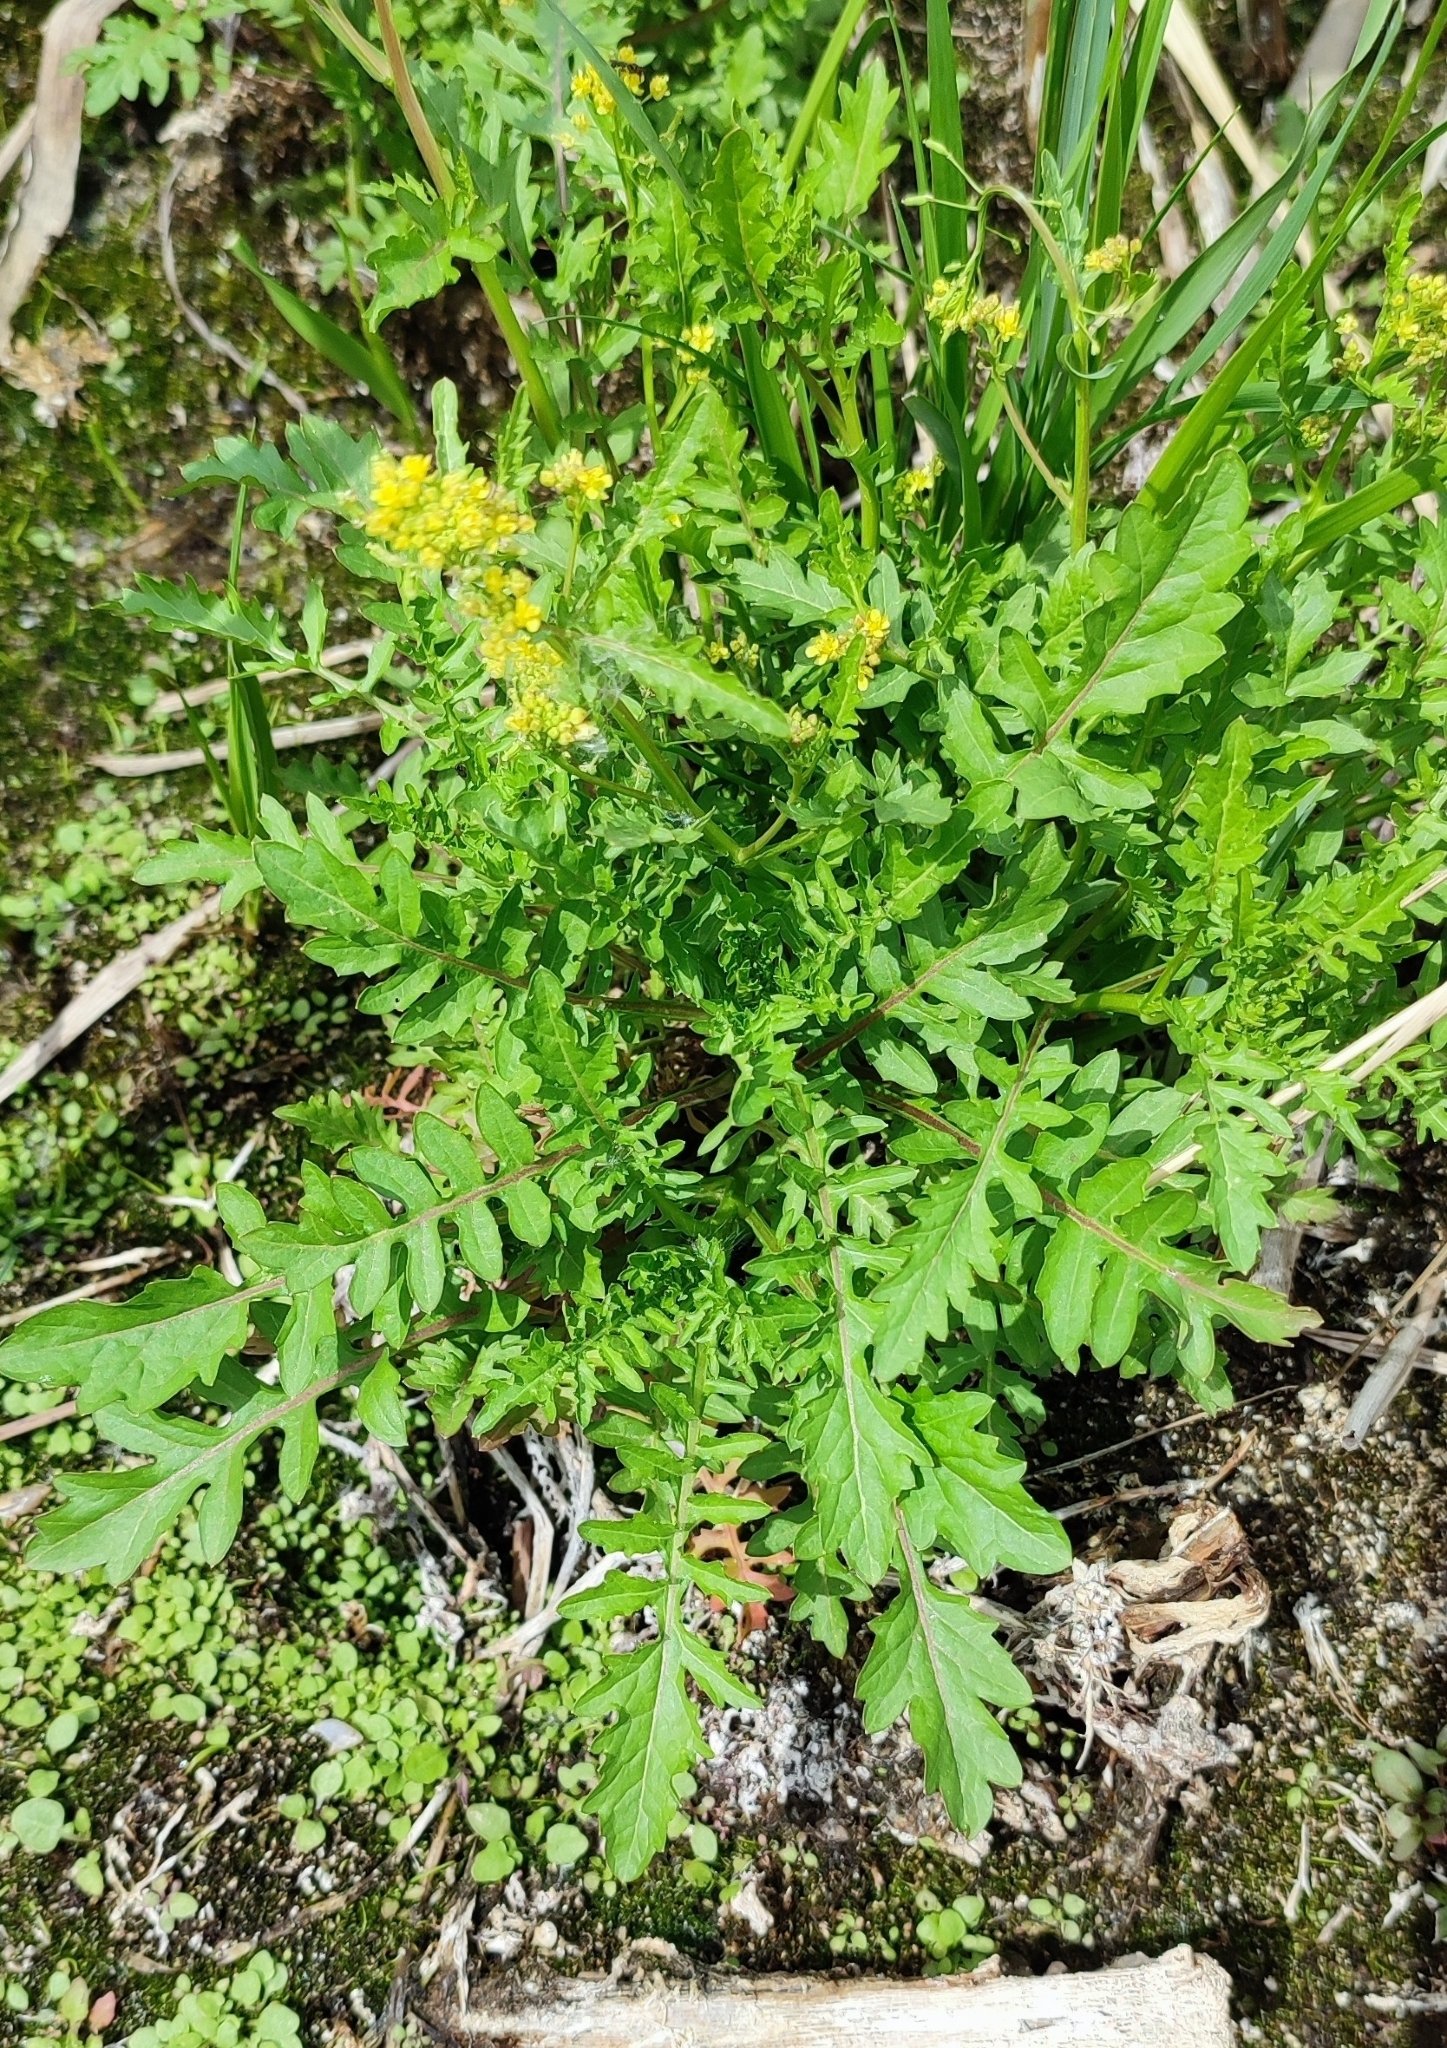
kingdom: Plantae
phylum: Tracheophyta
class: Magnoliopsida
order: Brassicales
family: Brassicaceae
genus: Rorippa
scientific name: Rorippa palustris
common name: Marsh yellow-cress
